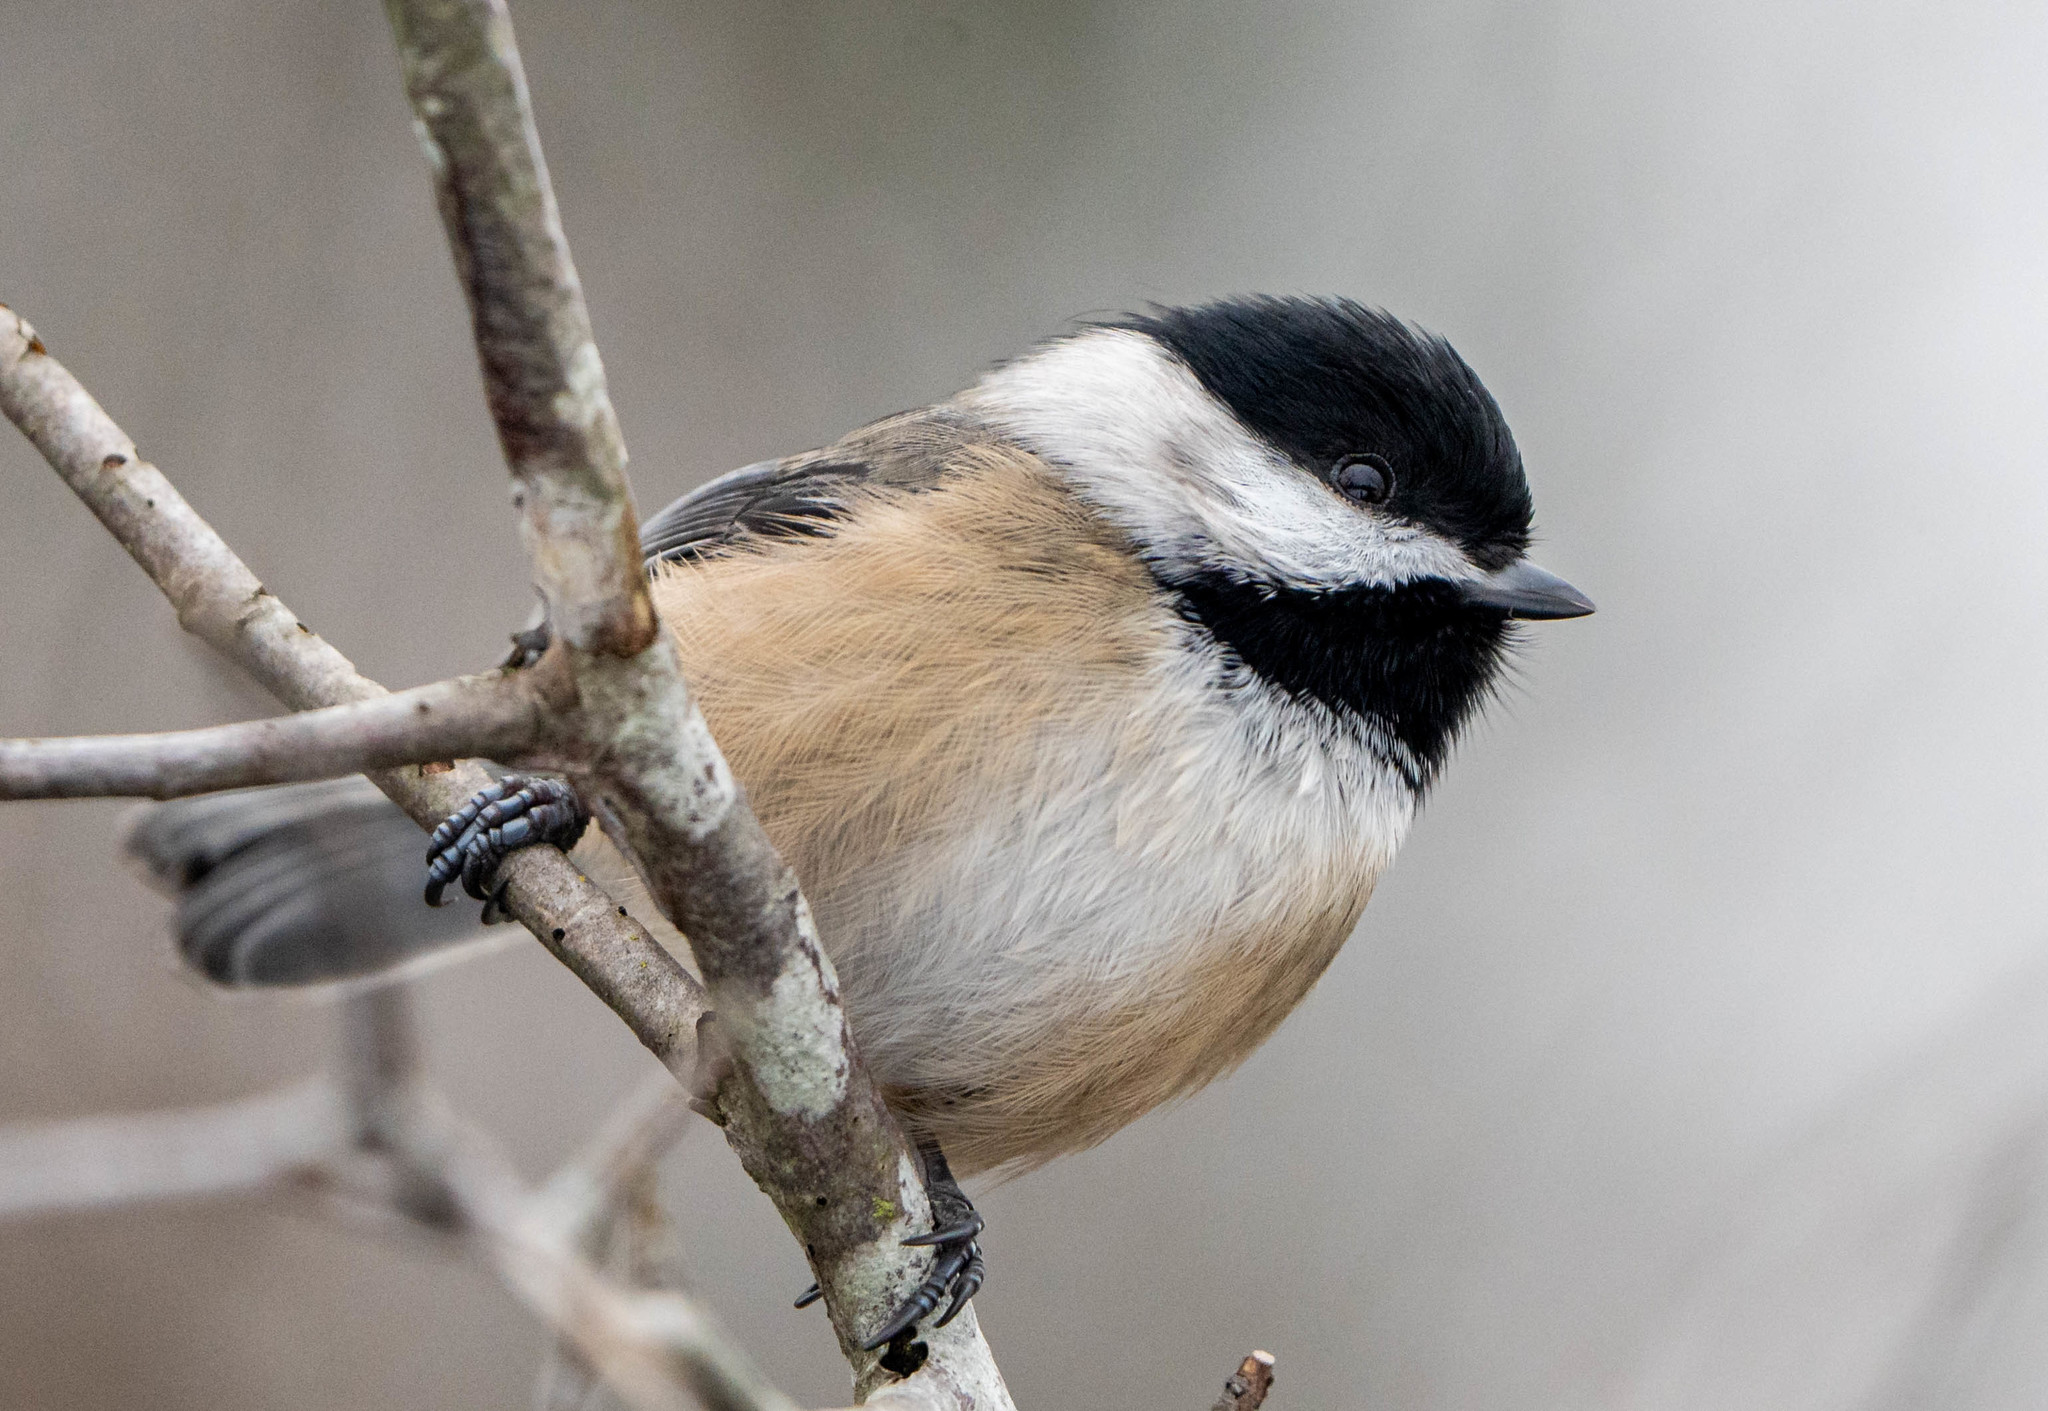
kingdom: Animalia
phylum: Chordata
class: Aves
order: Passeriformes
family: Paridae
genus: Poecile
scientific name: Poecile atricapillus
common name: Black-capped chickadee
